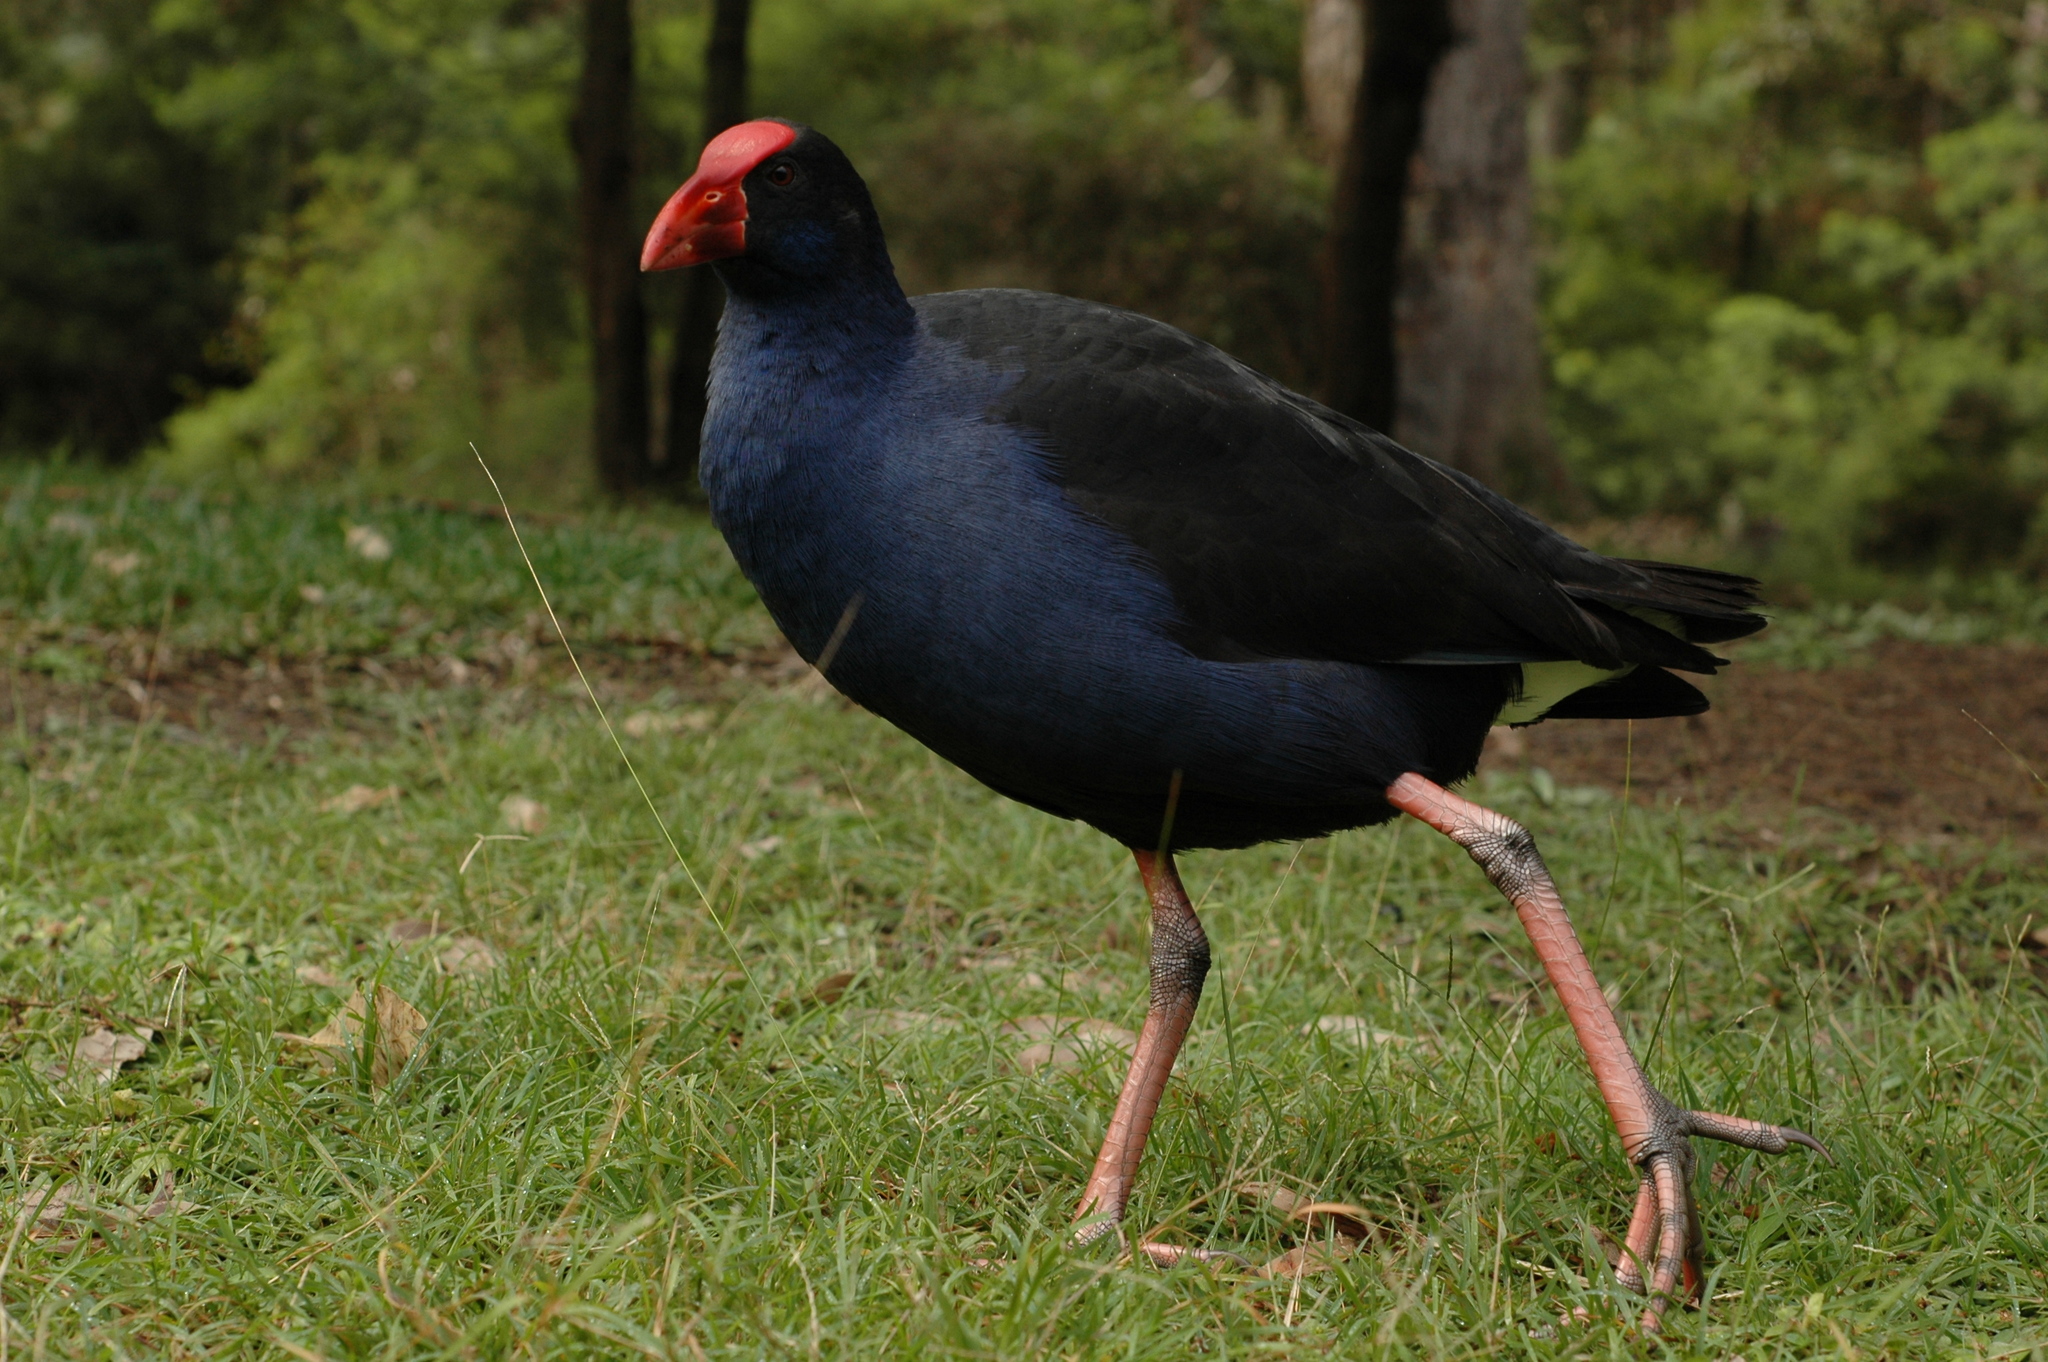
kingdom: Animalia
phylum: Chordata
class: Aves
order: Gruiformes
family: Rallidae
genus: Porphyrio
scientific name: Porphyrio melanotus
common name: Australasian swamphen
